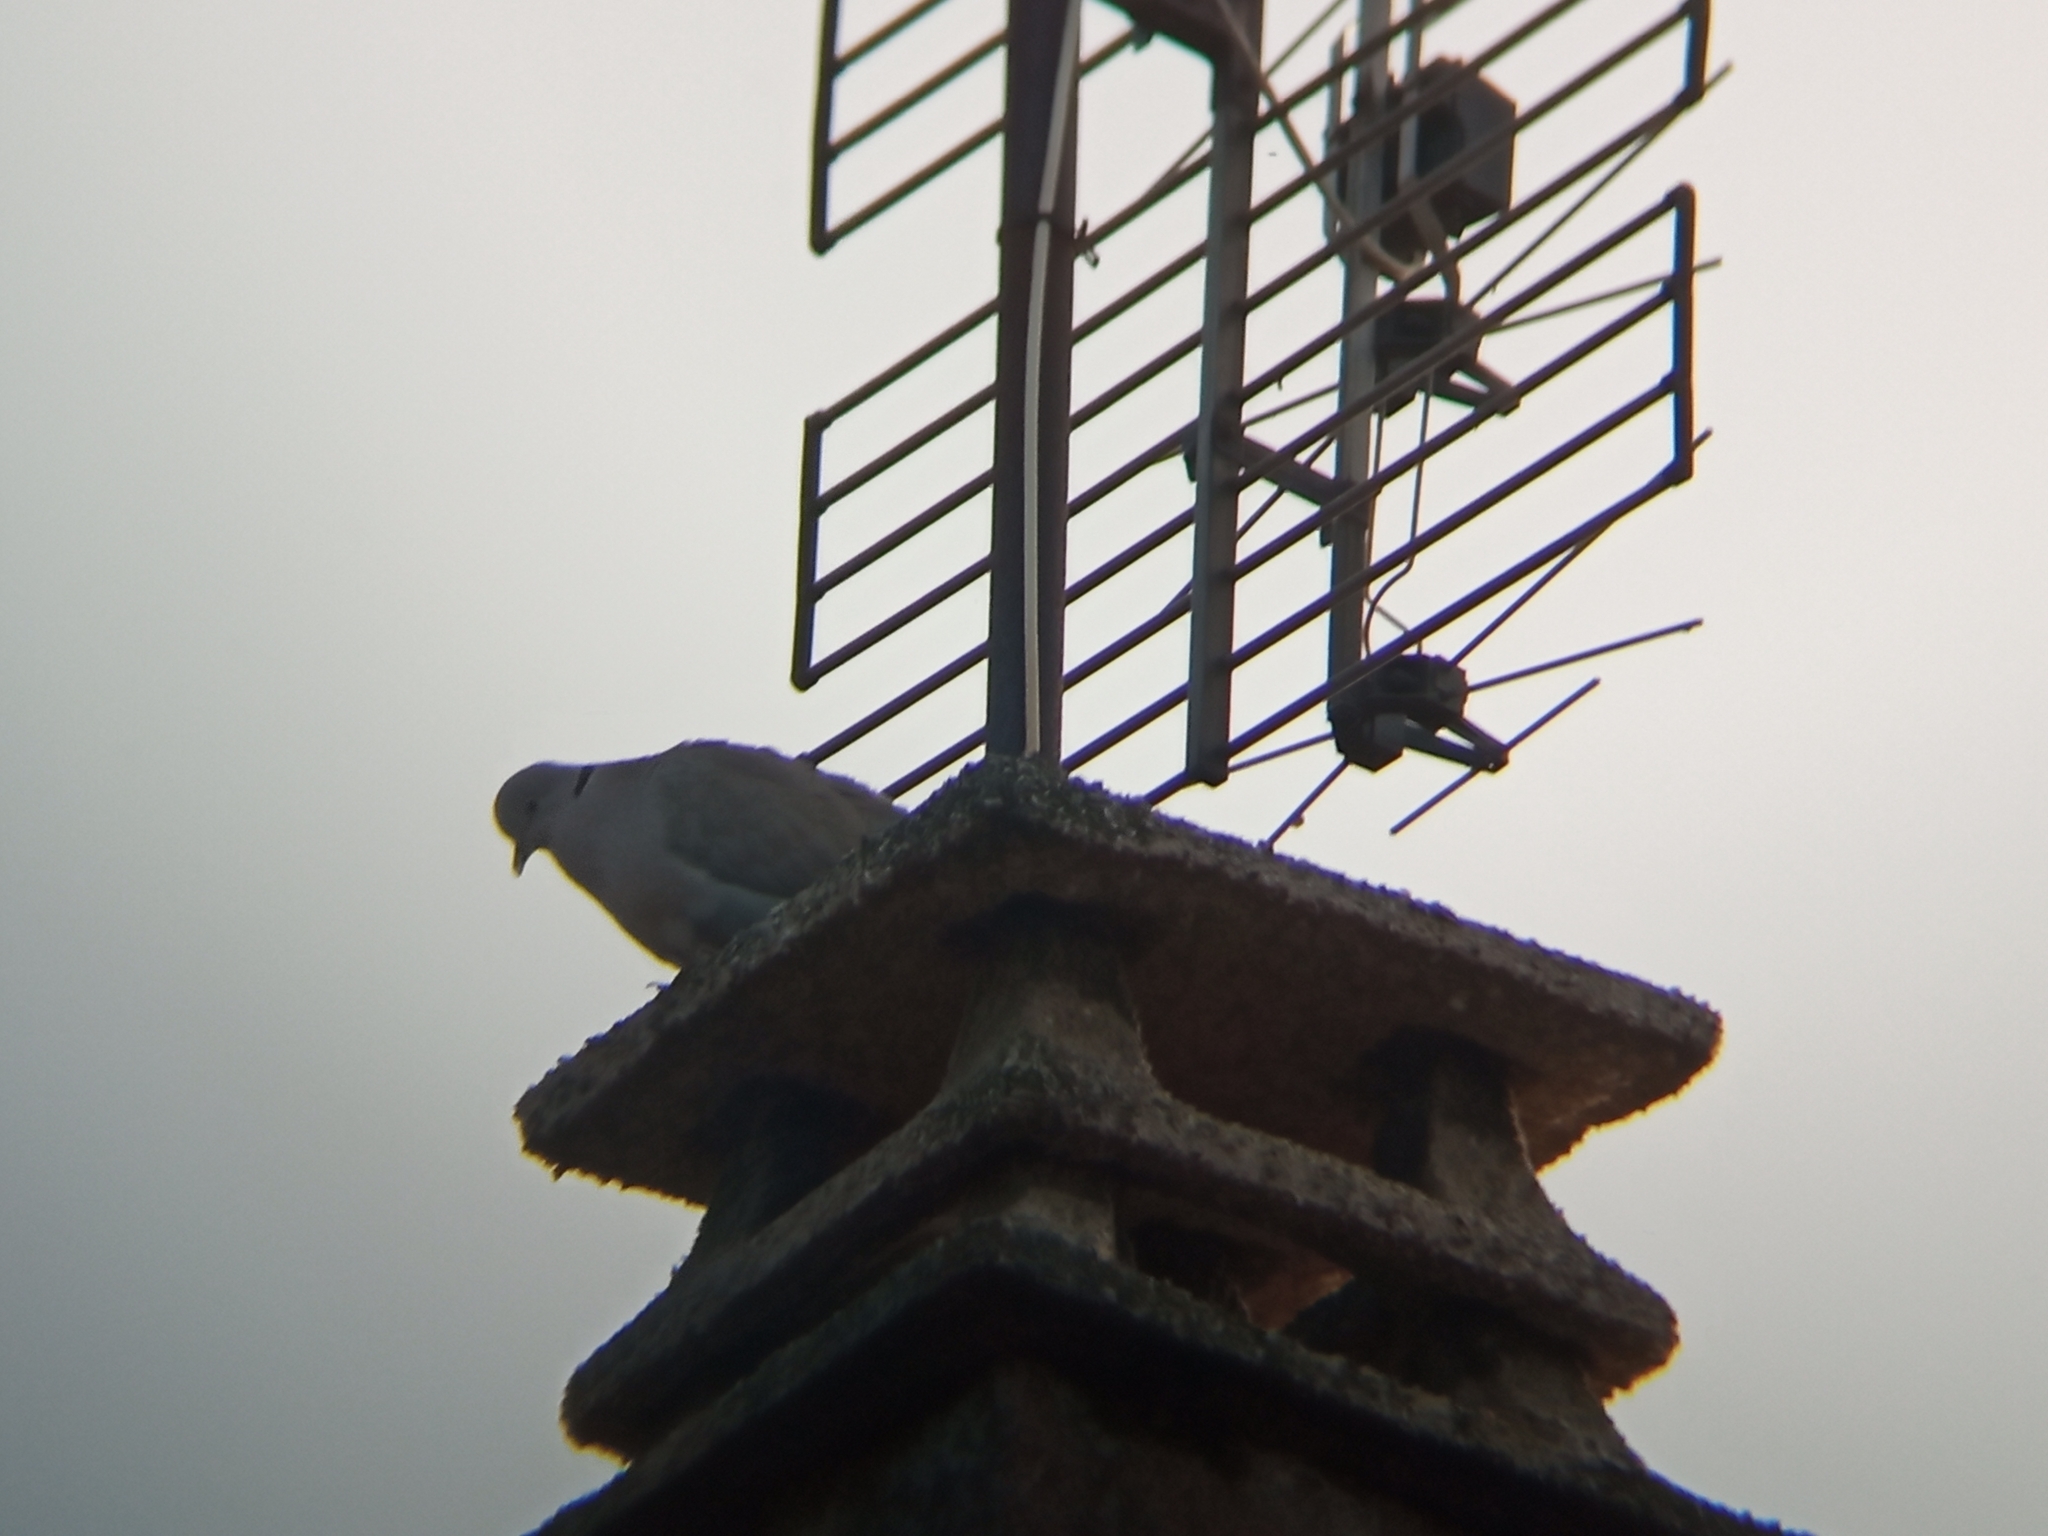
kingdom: Animalia
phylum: Chordata
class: Aves
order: Columbiformes
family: Columbidae
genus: Streptopelia
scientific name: Streptopelia decaocto
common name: Eurasian collared dove
